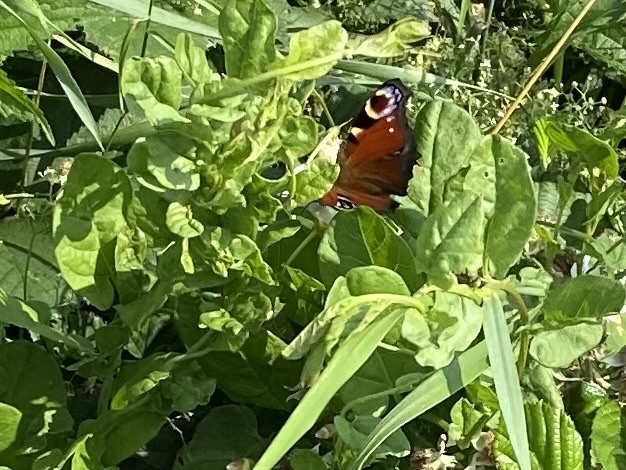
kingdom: Animalia
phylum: Arthropoda
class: Insecta
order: Lepidoptera
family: Nymphalidae
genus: Aglais
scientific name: Aglais io
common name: Peacock
